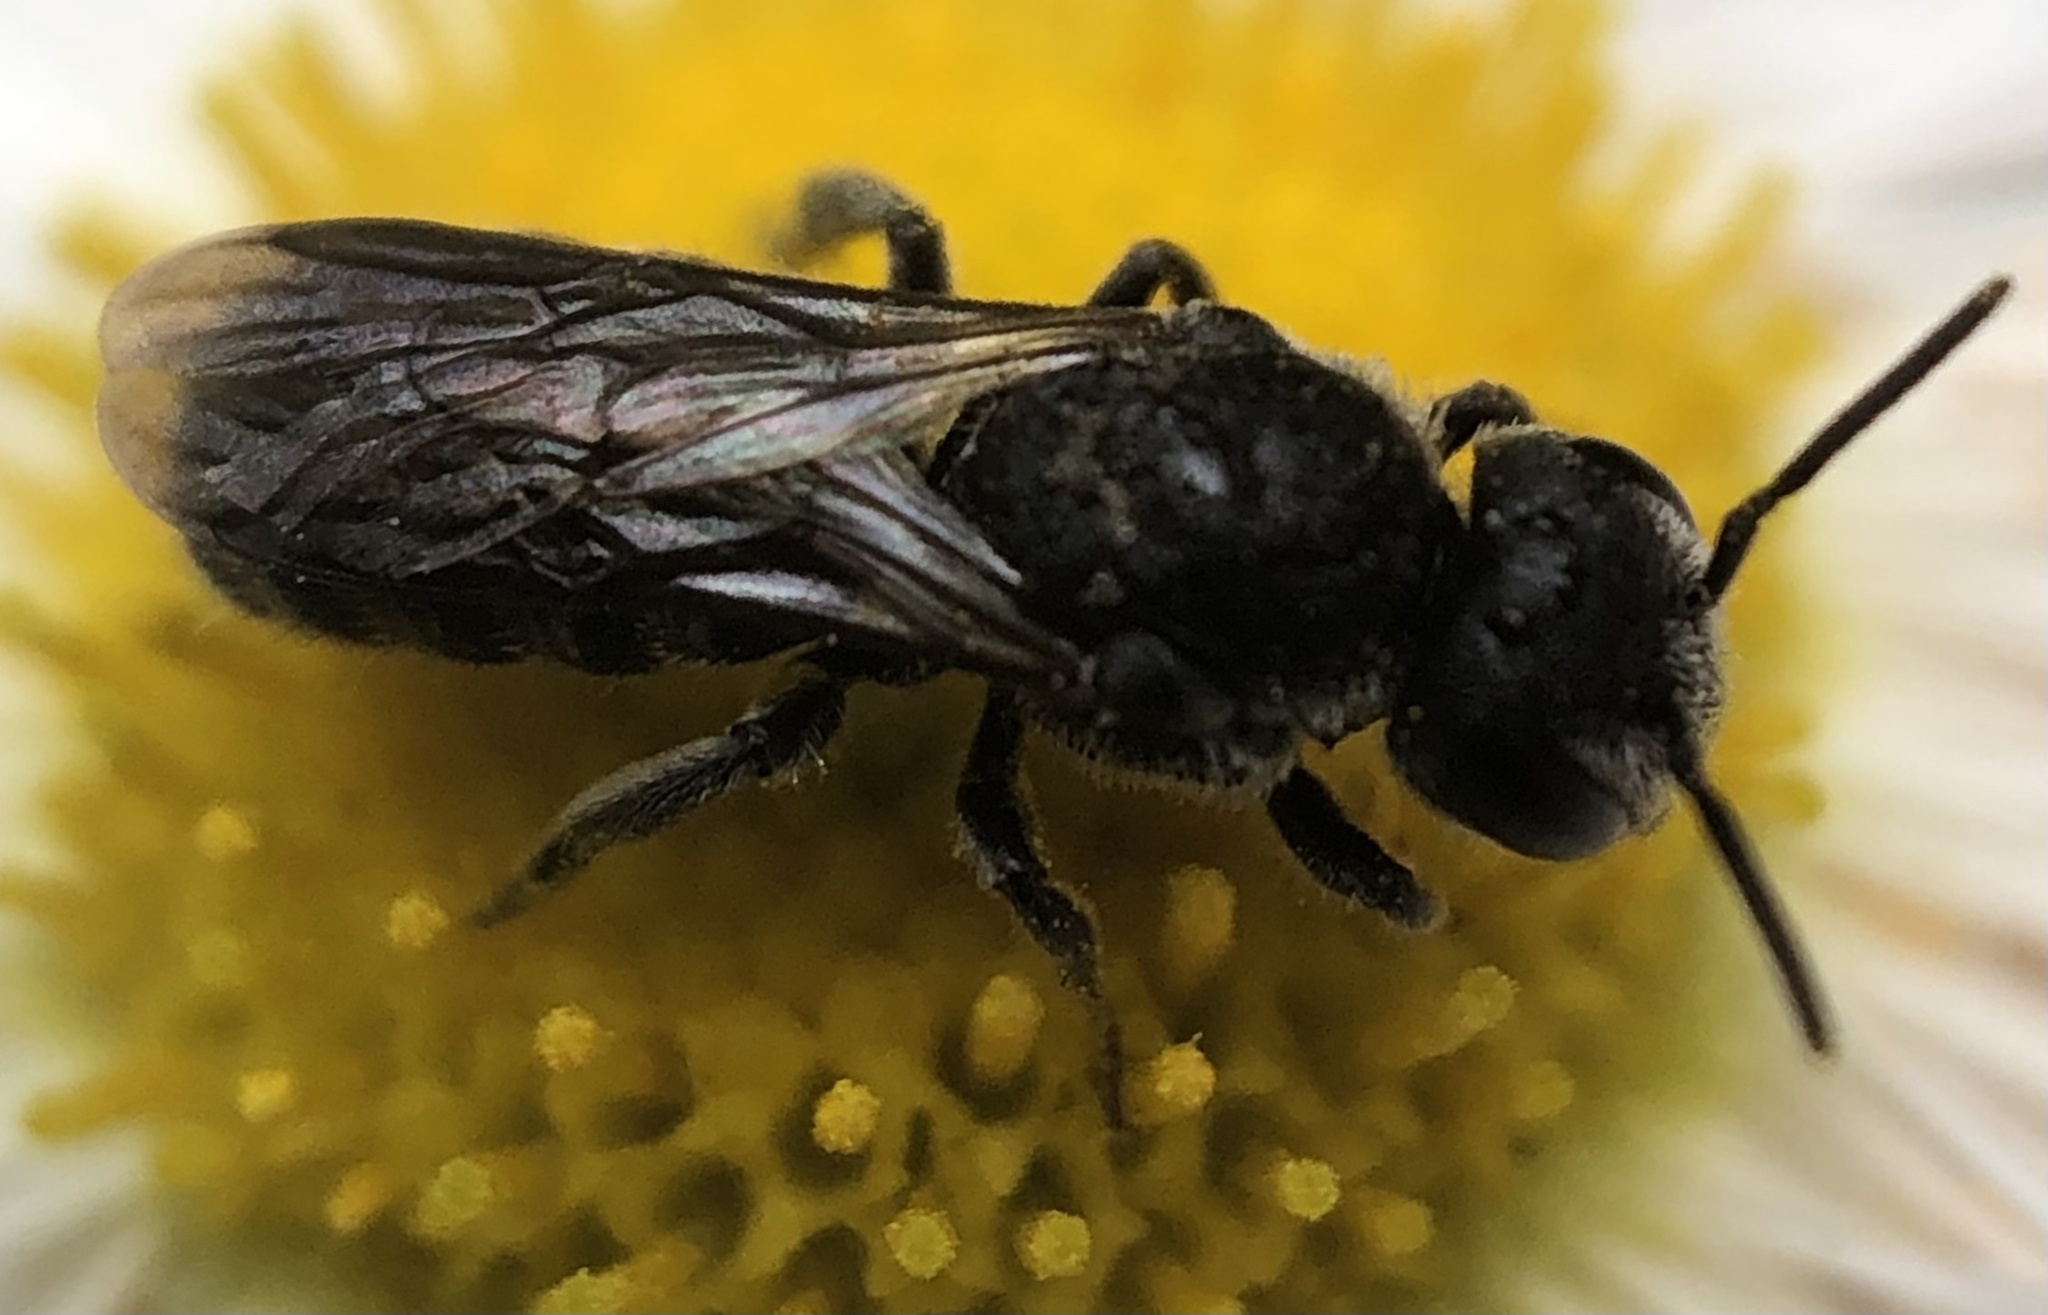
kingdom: Animalia
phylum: Arthropoda
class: Insecta
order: Hymenoptera
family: Megachilidae
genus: Stelis
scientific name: Stelis coarctatus
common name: Constrained cuckoo carder bee
